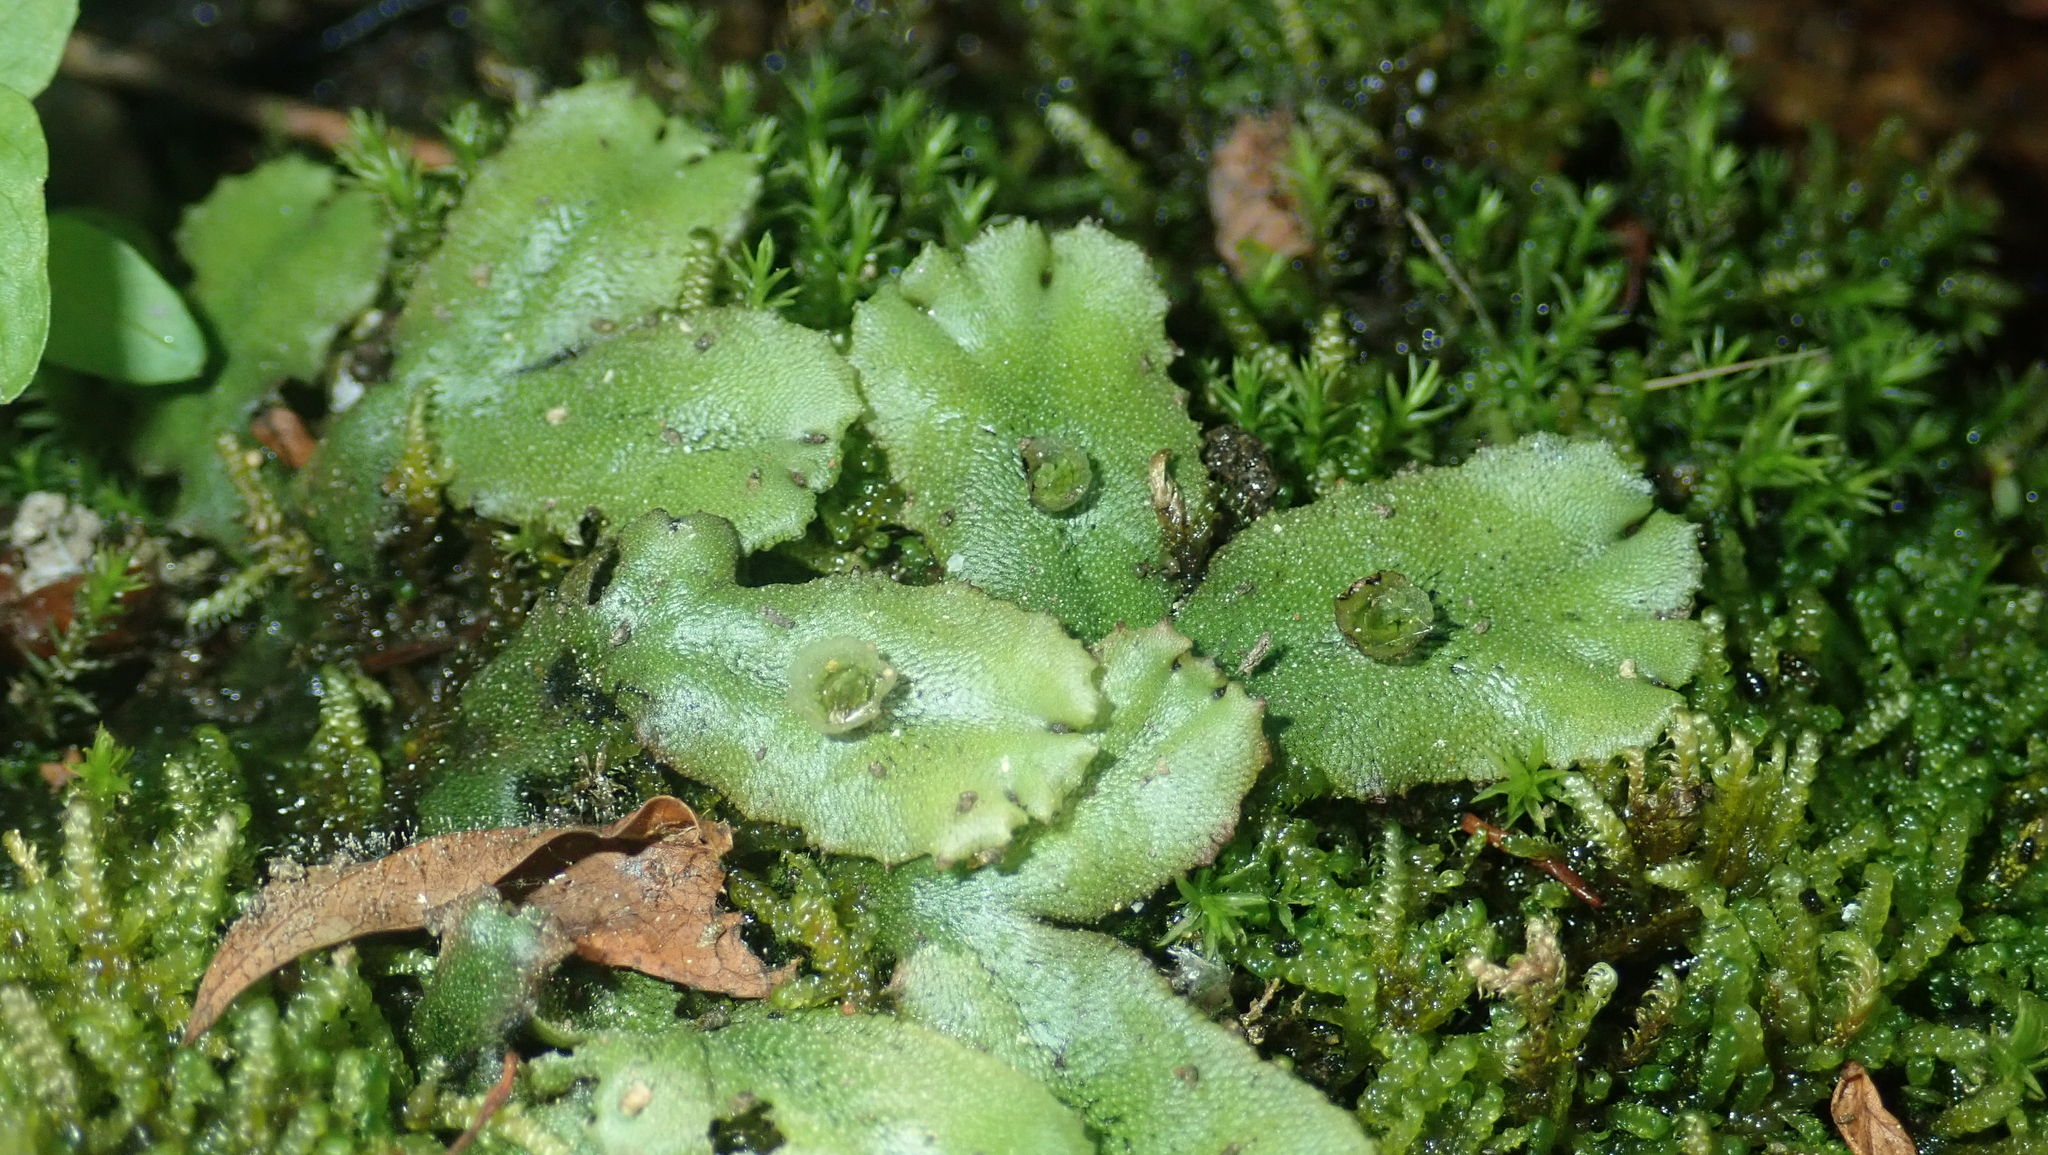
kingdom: Plantae
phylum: Marchantiophyta
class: Marchantiopsida
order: Marchantiales
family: Marchantiaceae
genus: Marchantia
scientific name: Marchantia polymorpha
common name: Common liverwort
